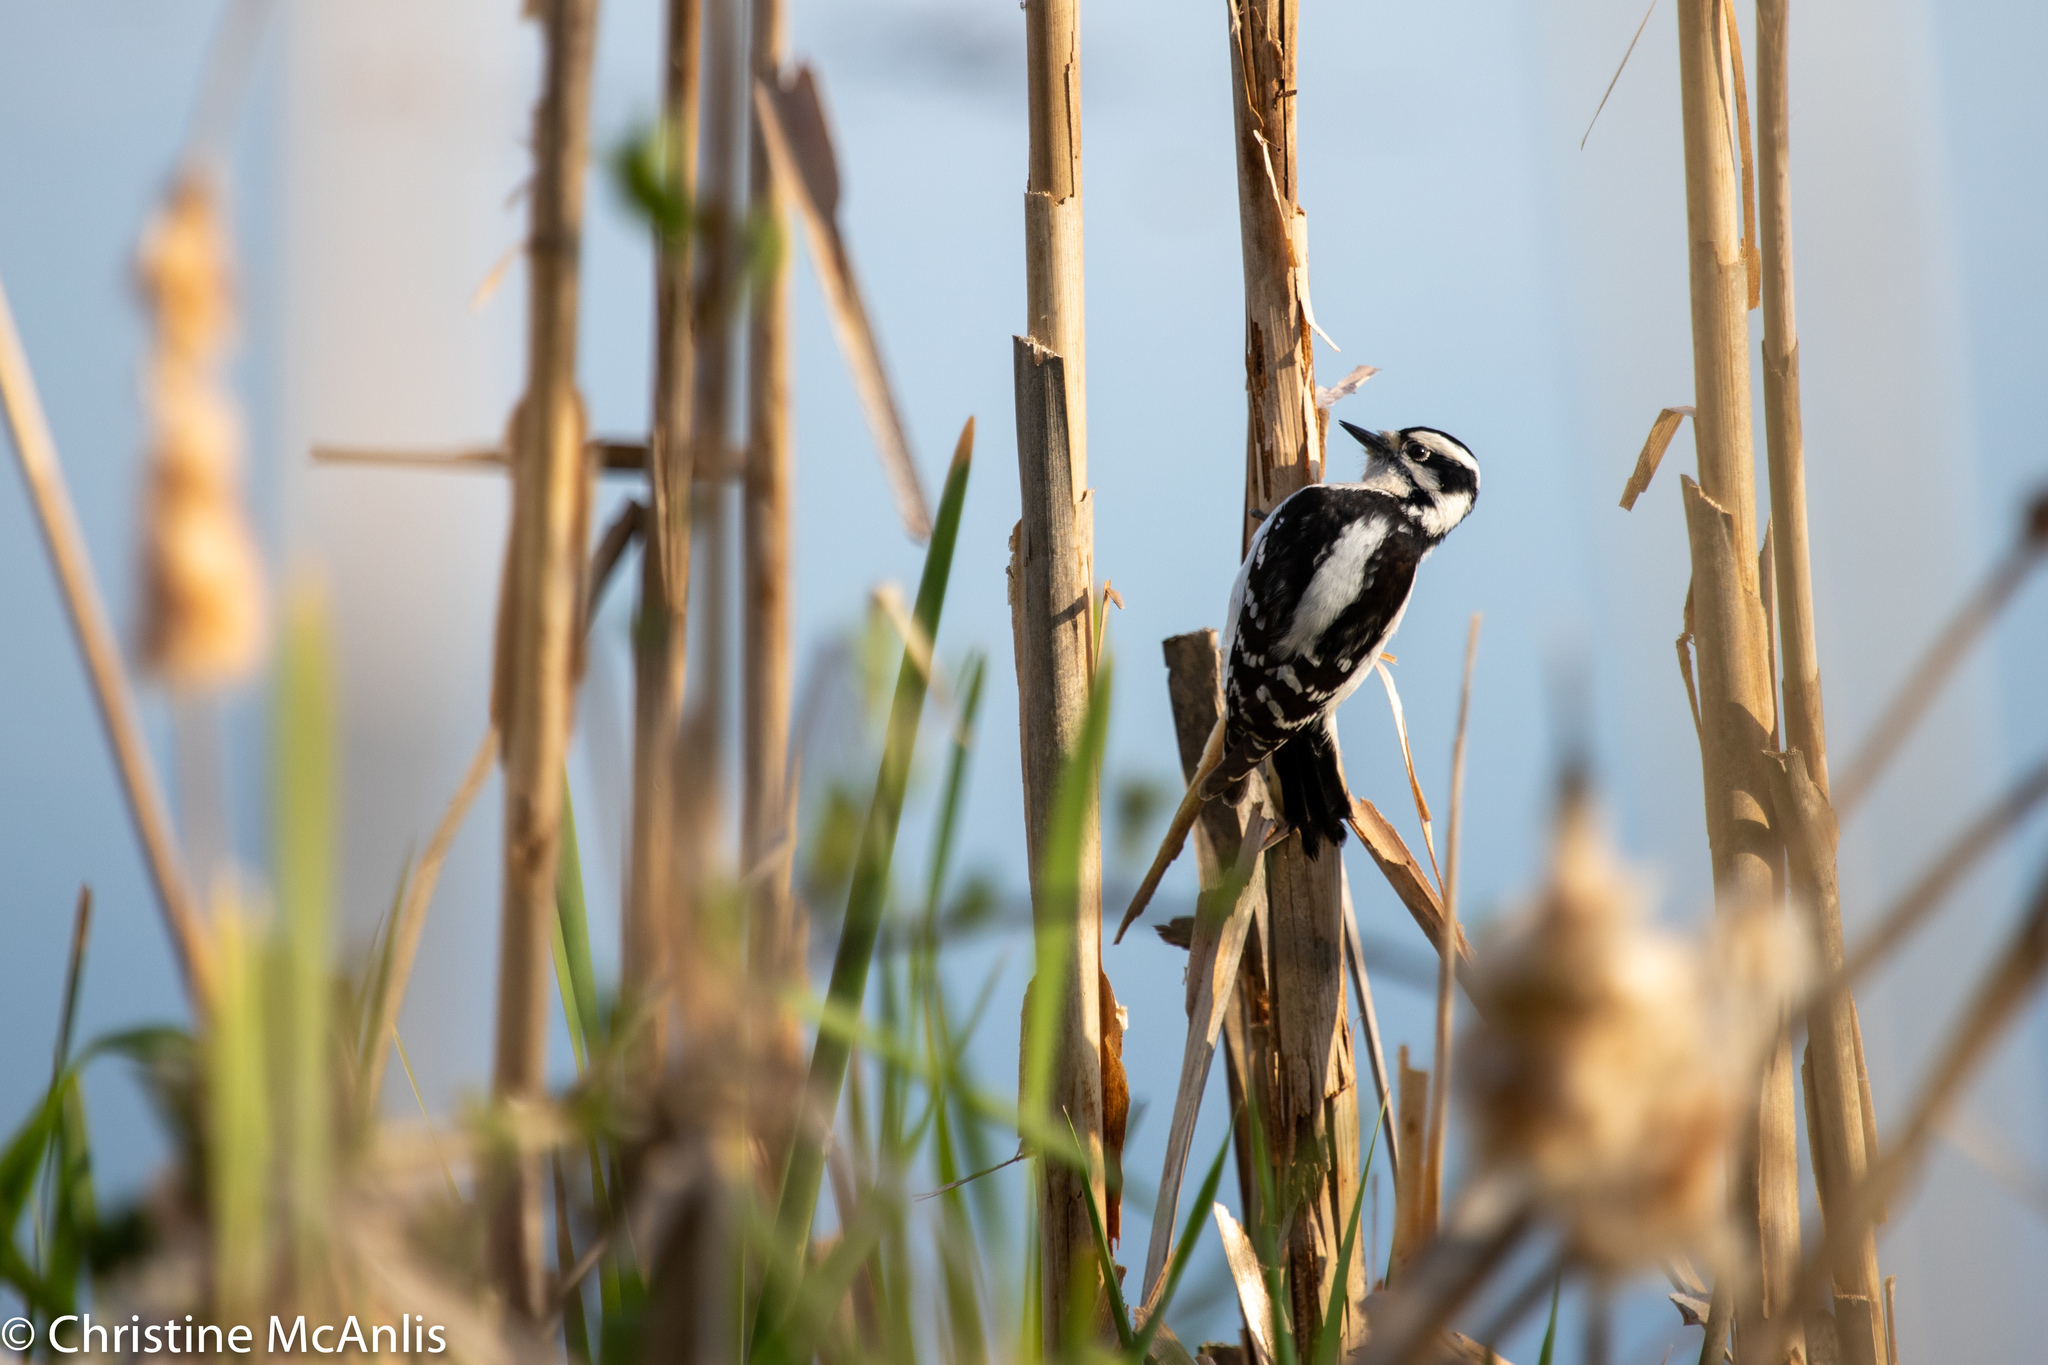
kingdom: Animalia
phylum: Chordata
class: Aves
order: Piciformes
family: Picidae
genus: Dryobates
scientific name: Dryobates pubescens
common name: Downy woodpecker
